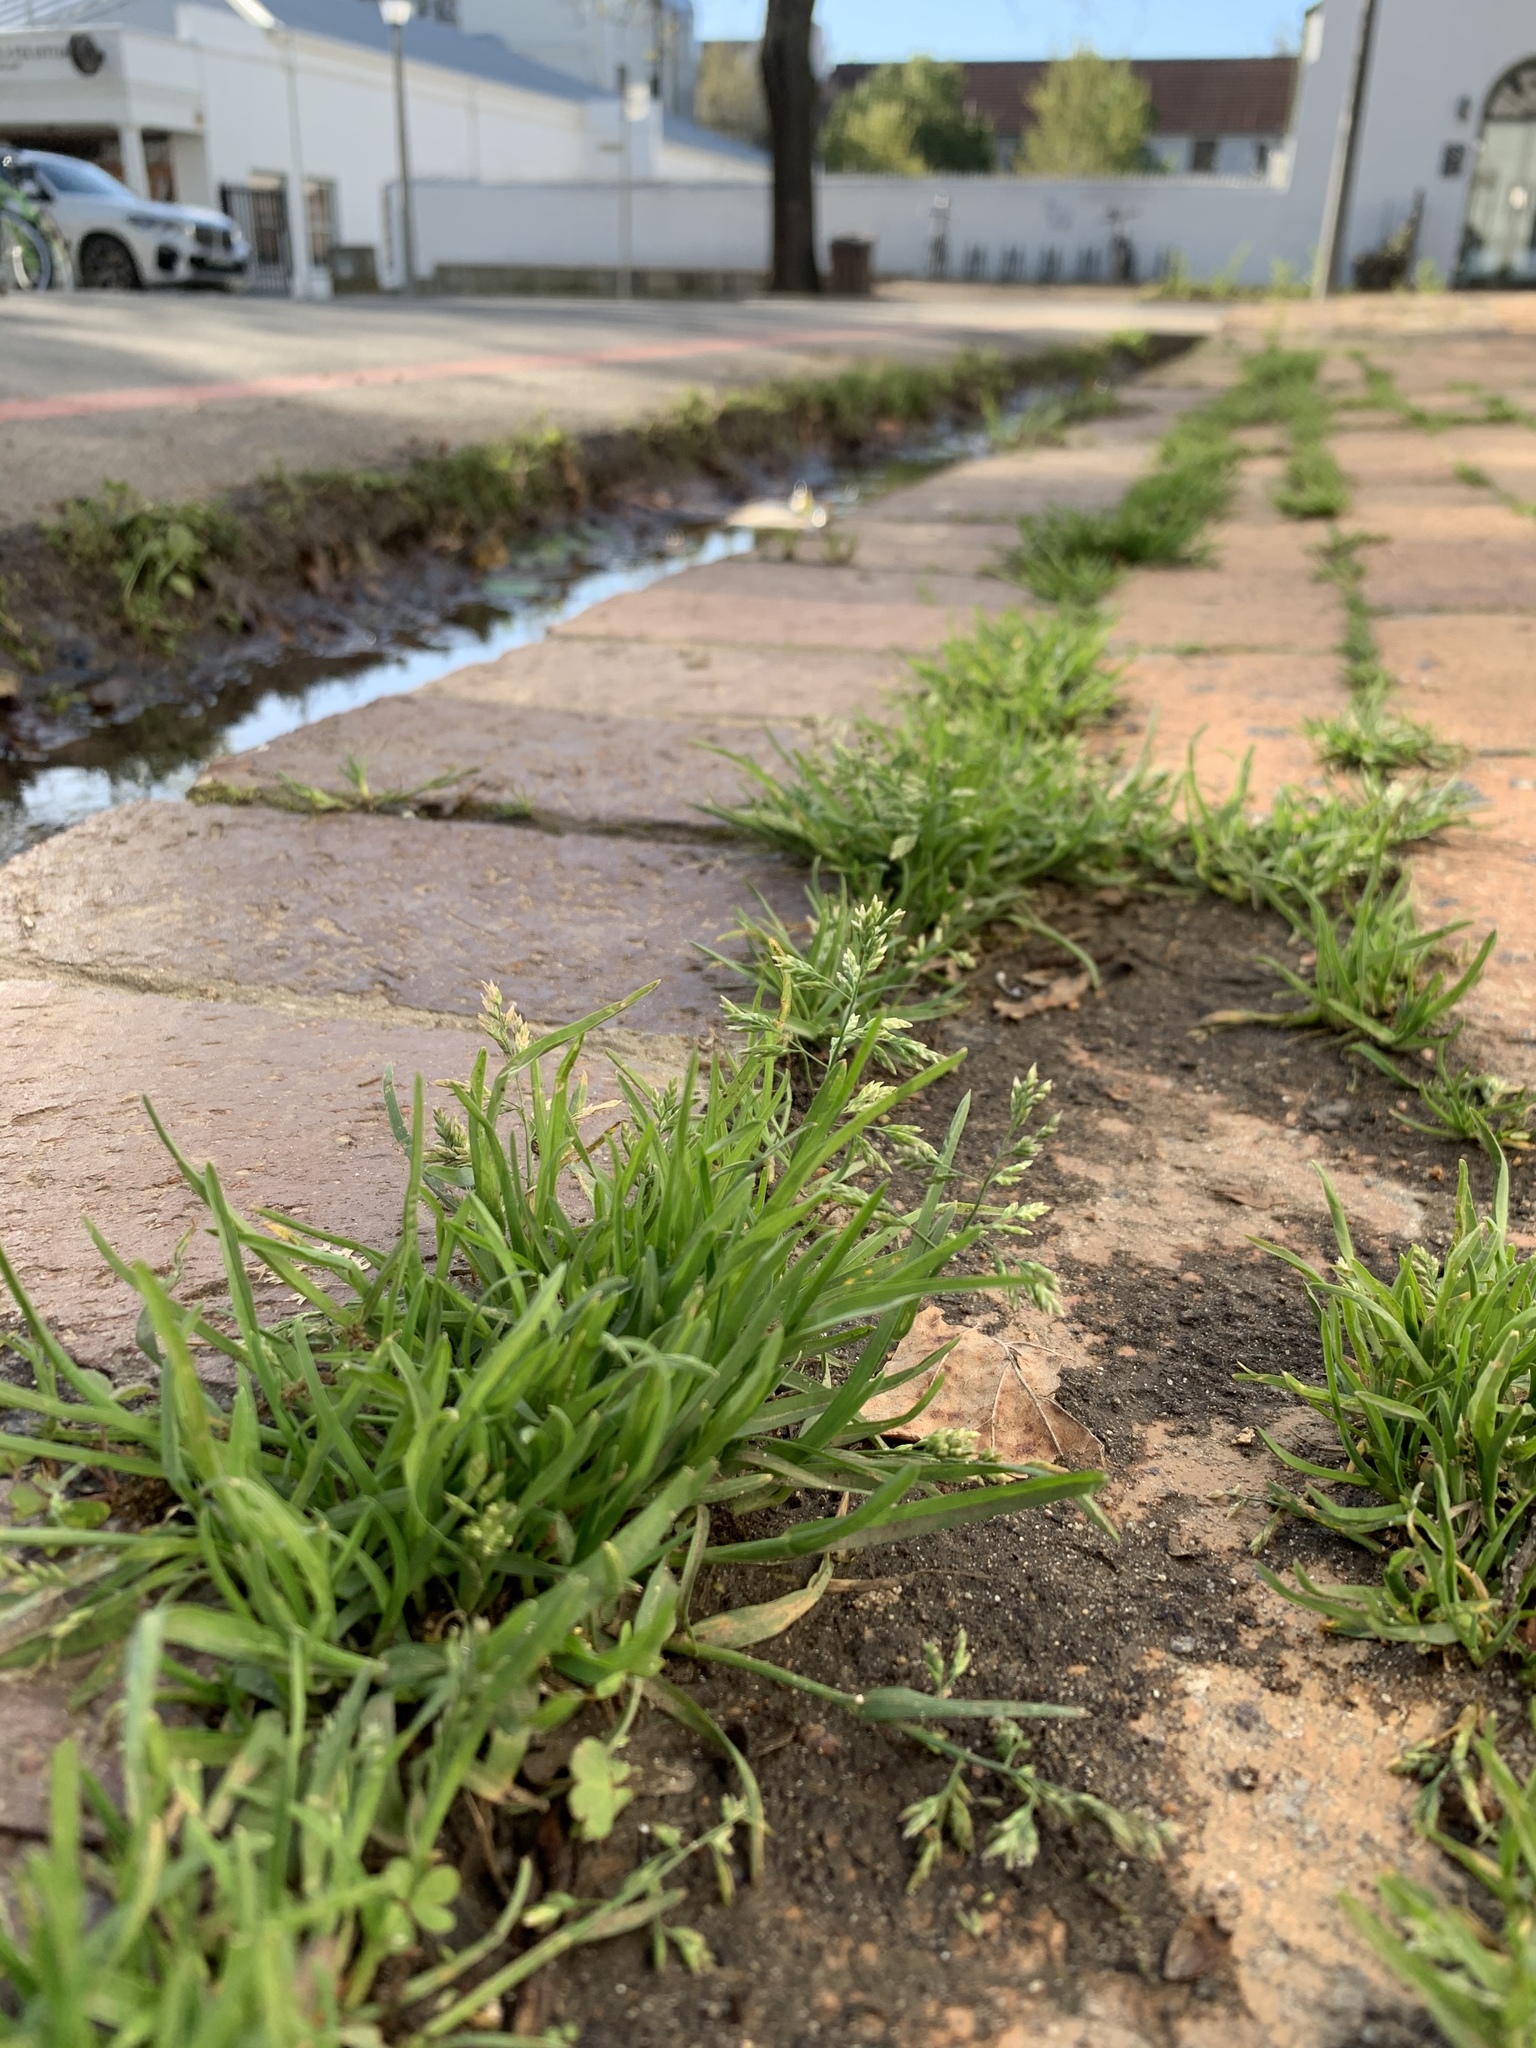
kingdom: Plantae
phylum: Tracheophyta
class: Liliopsida
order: Poales
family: Poaceae
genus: Poa
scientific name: Poa annua
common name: Annual bluegrass
